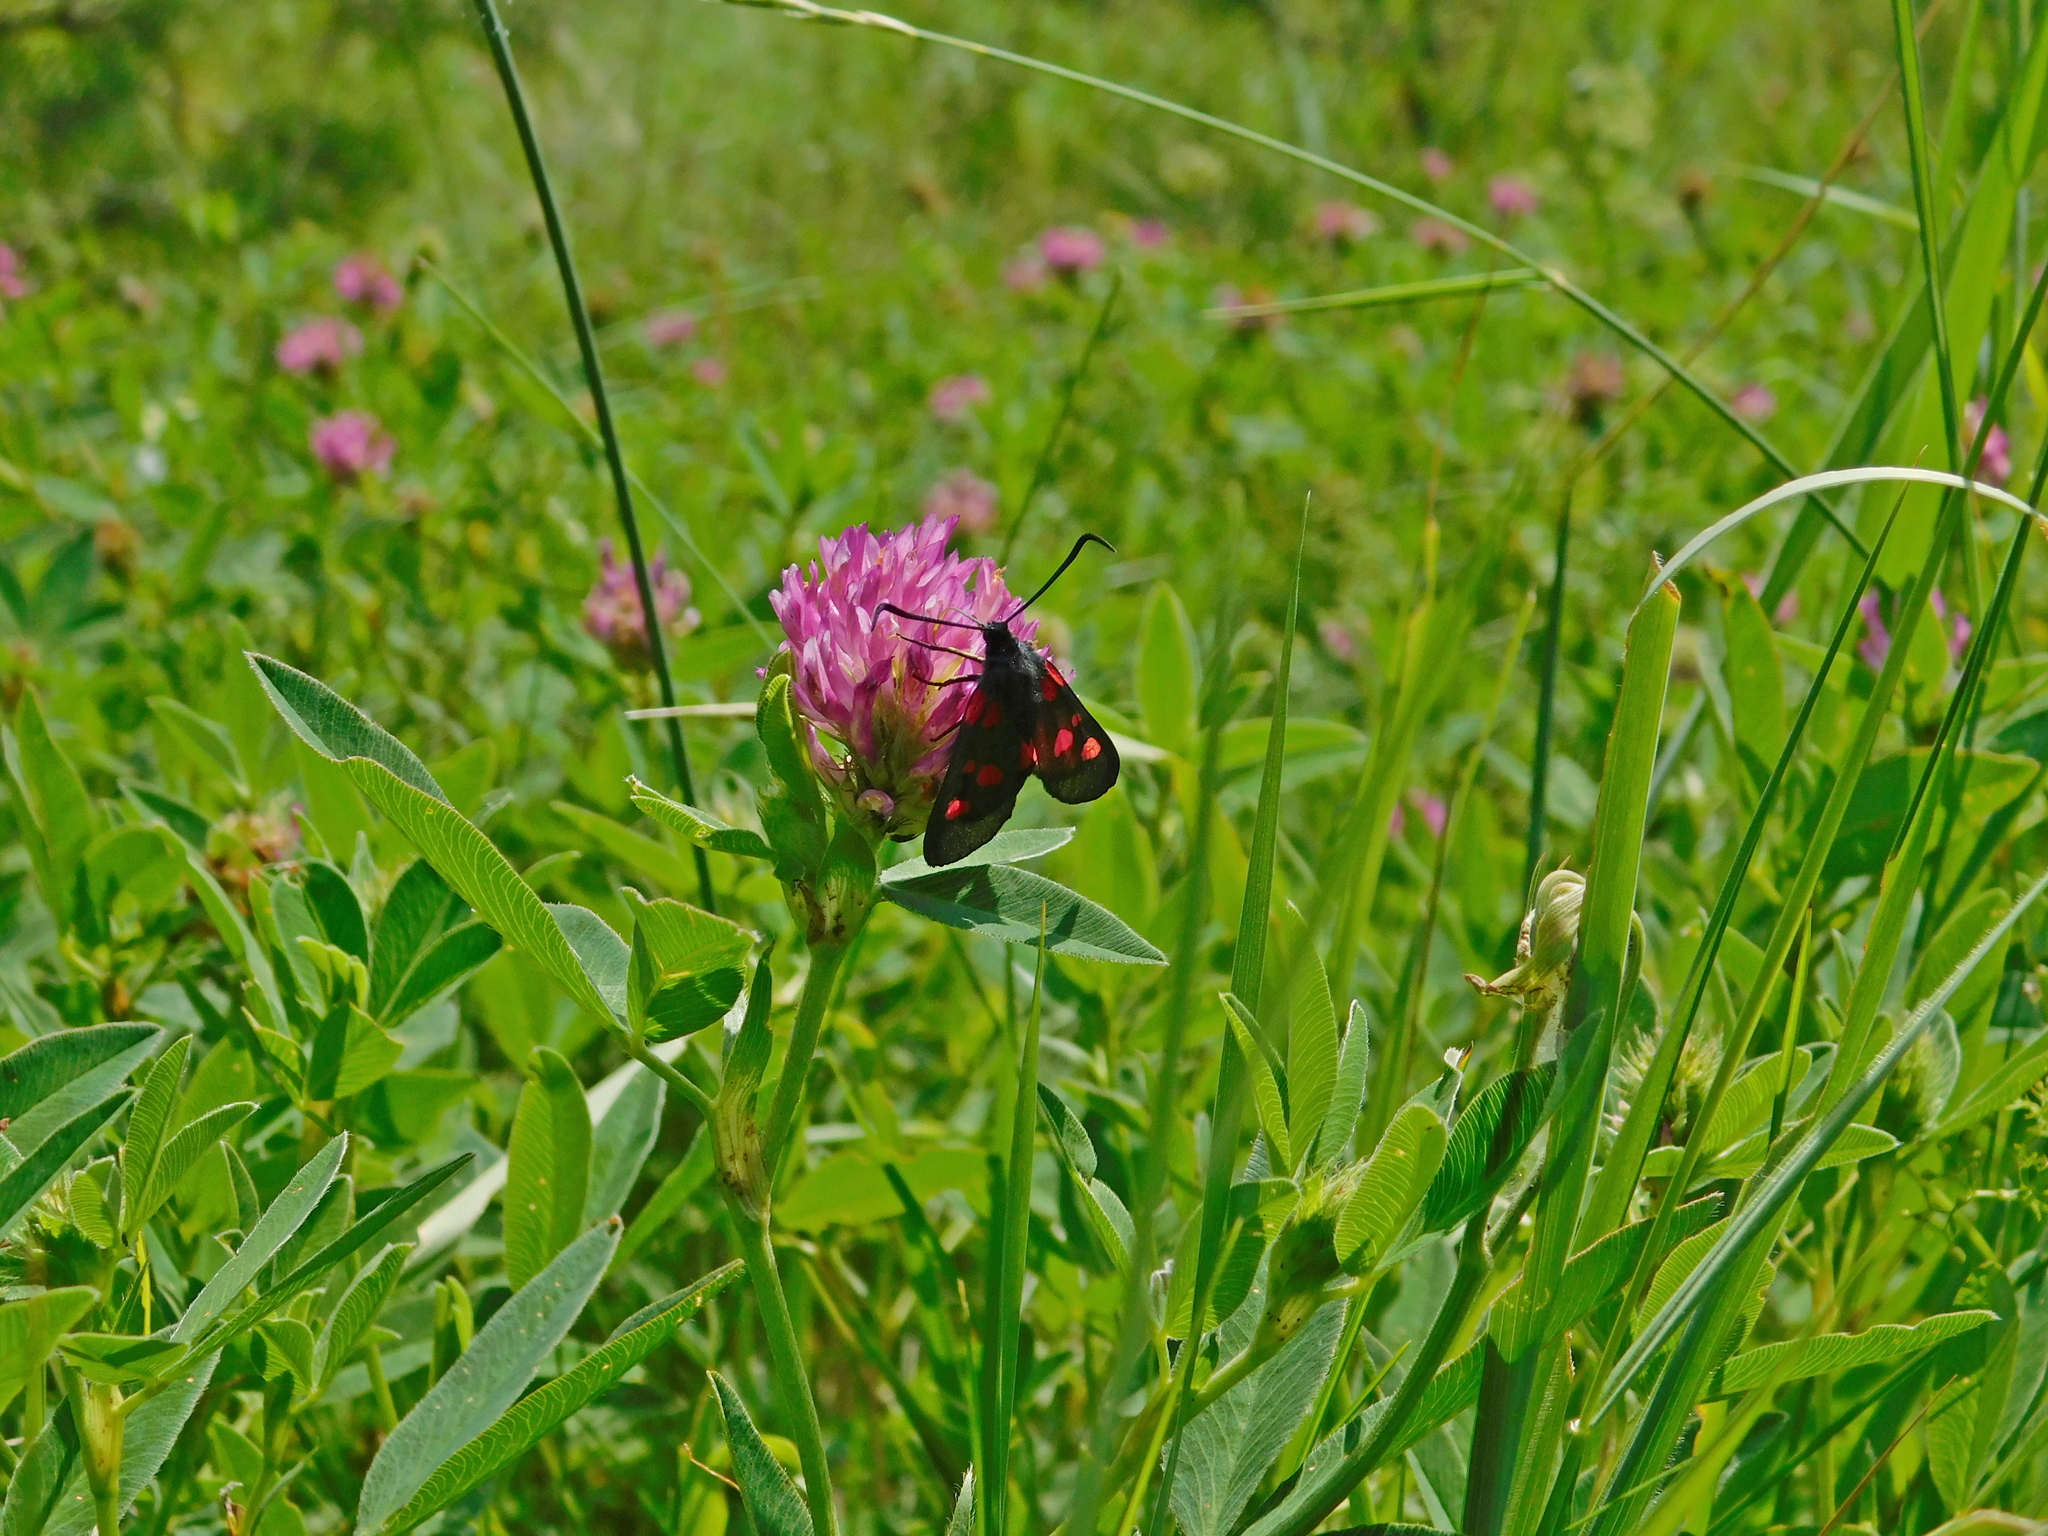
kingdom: Animalia
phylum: Arthropoda
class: Insecta
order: Lepidoptera
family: Zygaenidae
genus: Zygaena
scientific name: Zygaena lonicerae
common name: Narrow-bordered five-spot burnet
